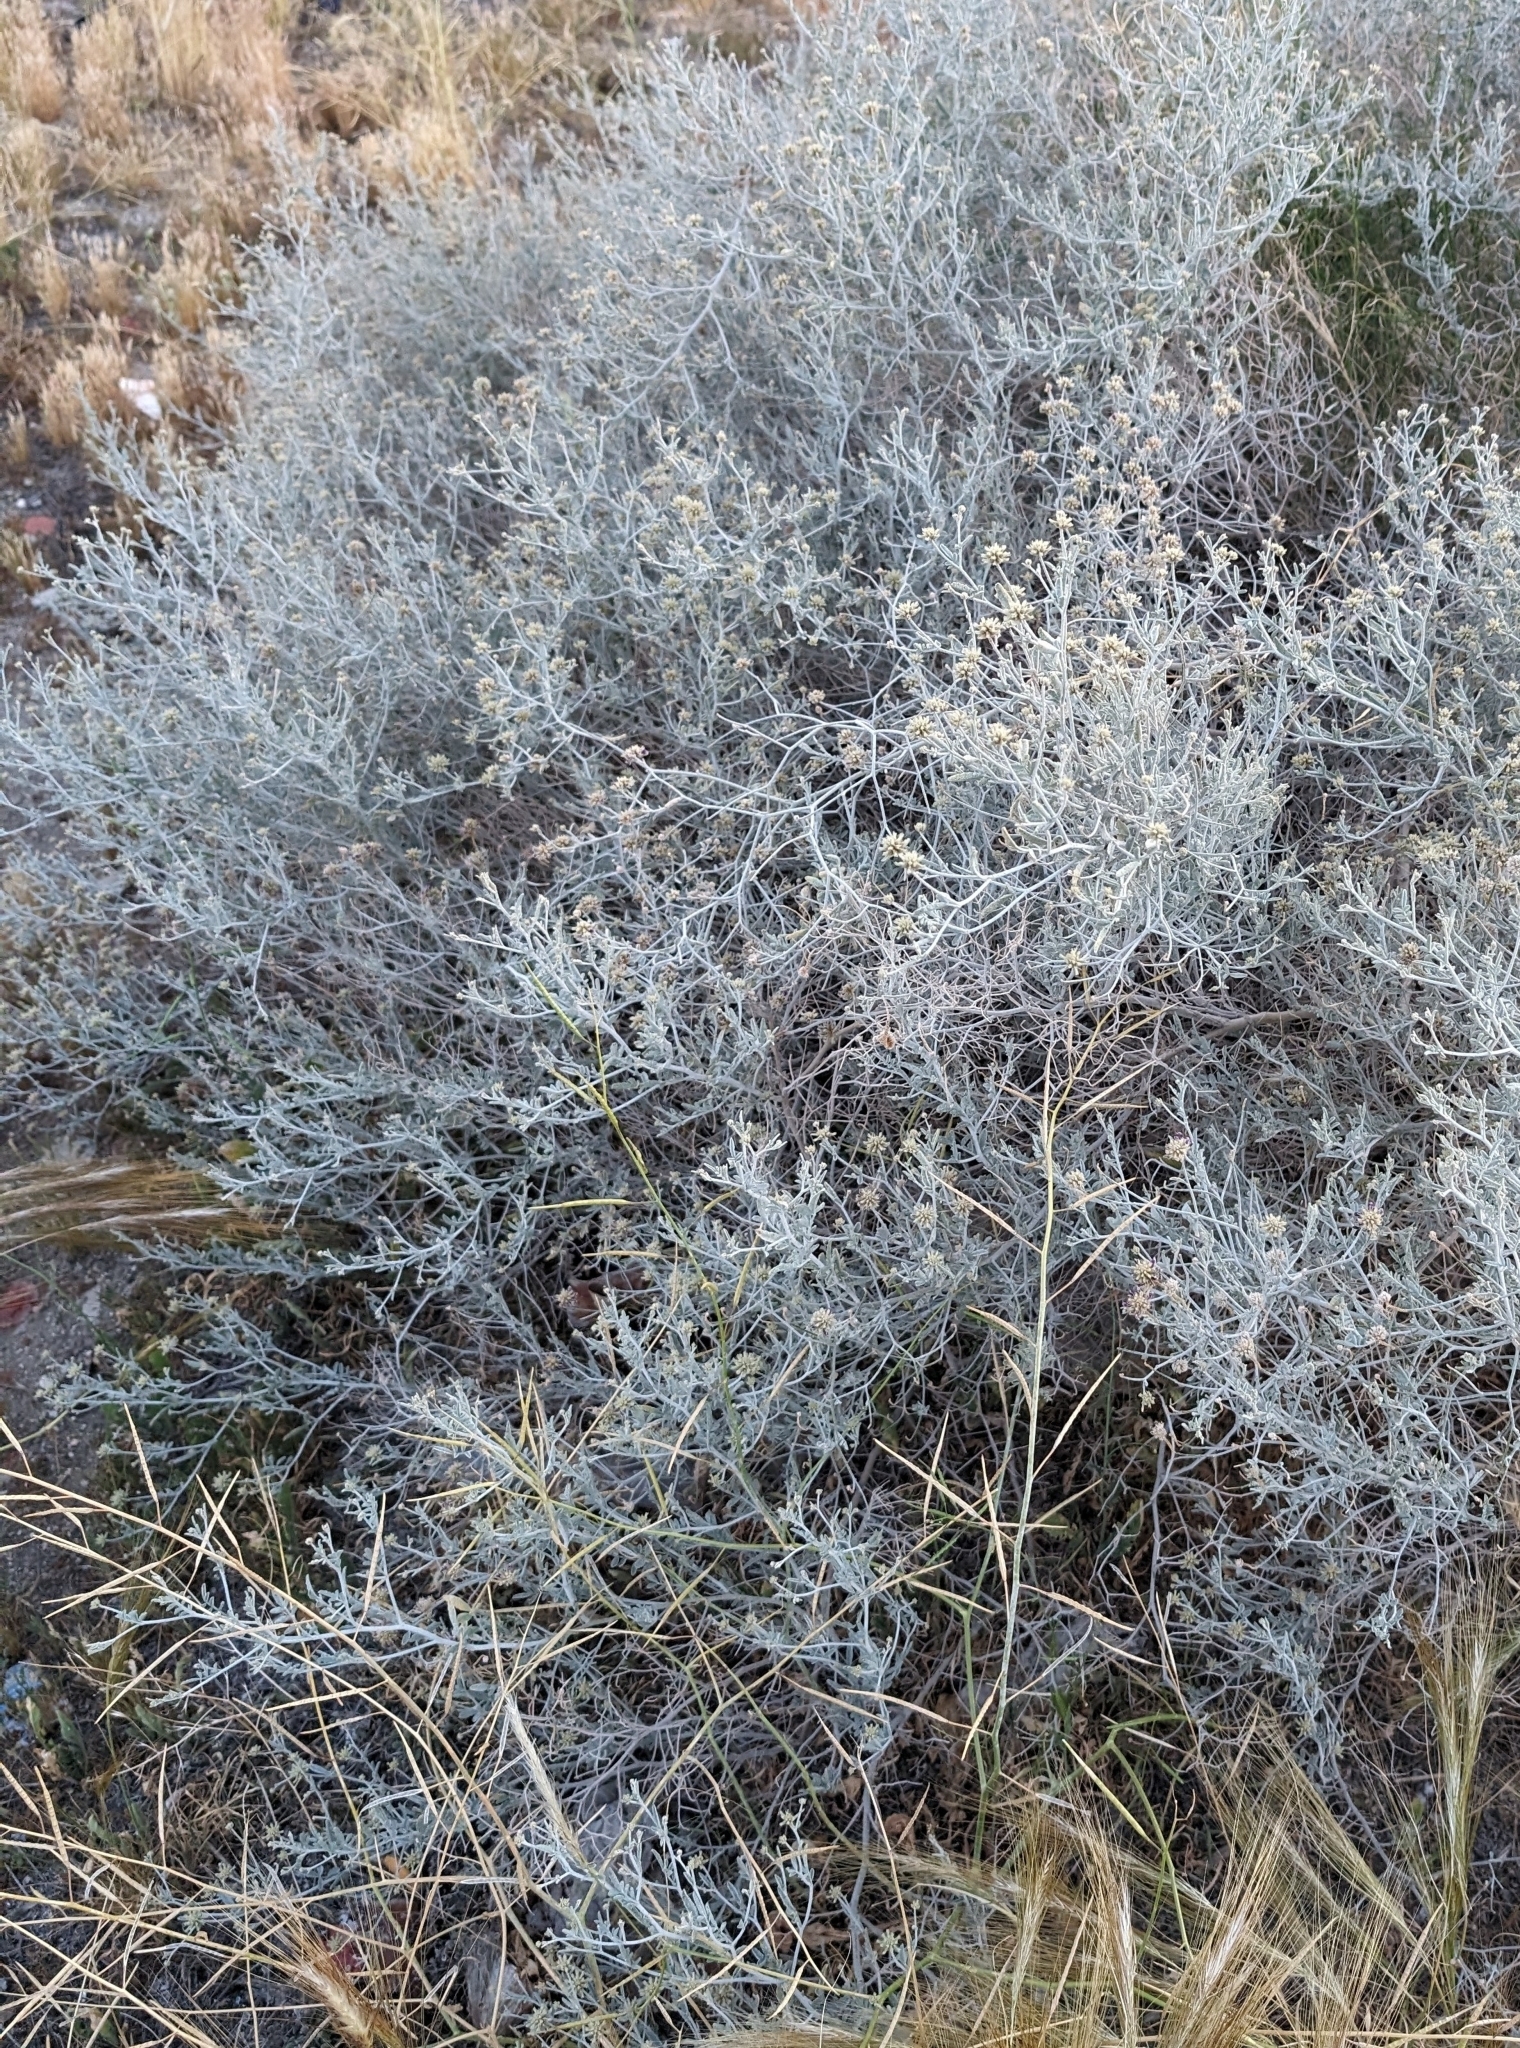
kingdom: Plantae
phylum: Tracheophyta
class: Magnoliopsida
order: Fabales
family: Fabaceae
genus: Psorothamnus
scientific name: Psorothamnus emoryi
